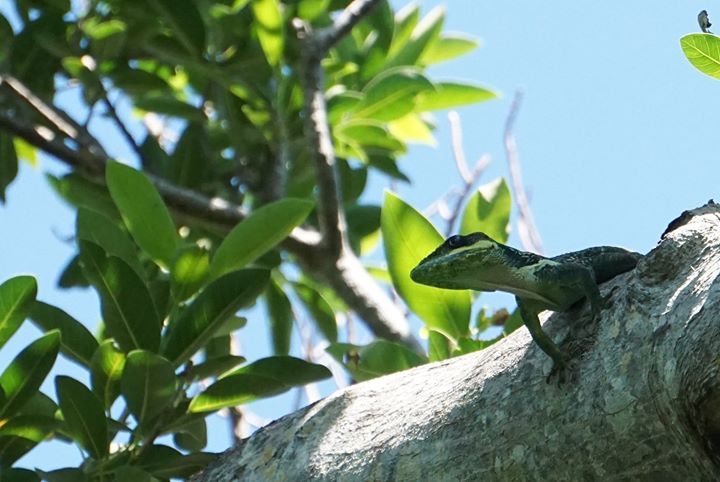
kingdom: Animalia
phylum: Chordata
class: Squamata
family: Dactyloidae
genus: Anolis
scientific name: Anolis equestris
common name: Knight anole
